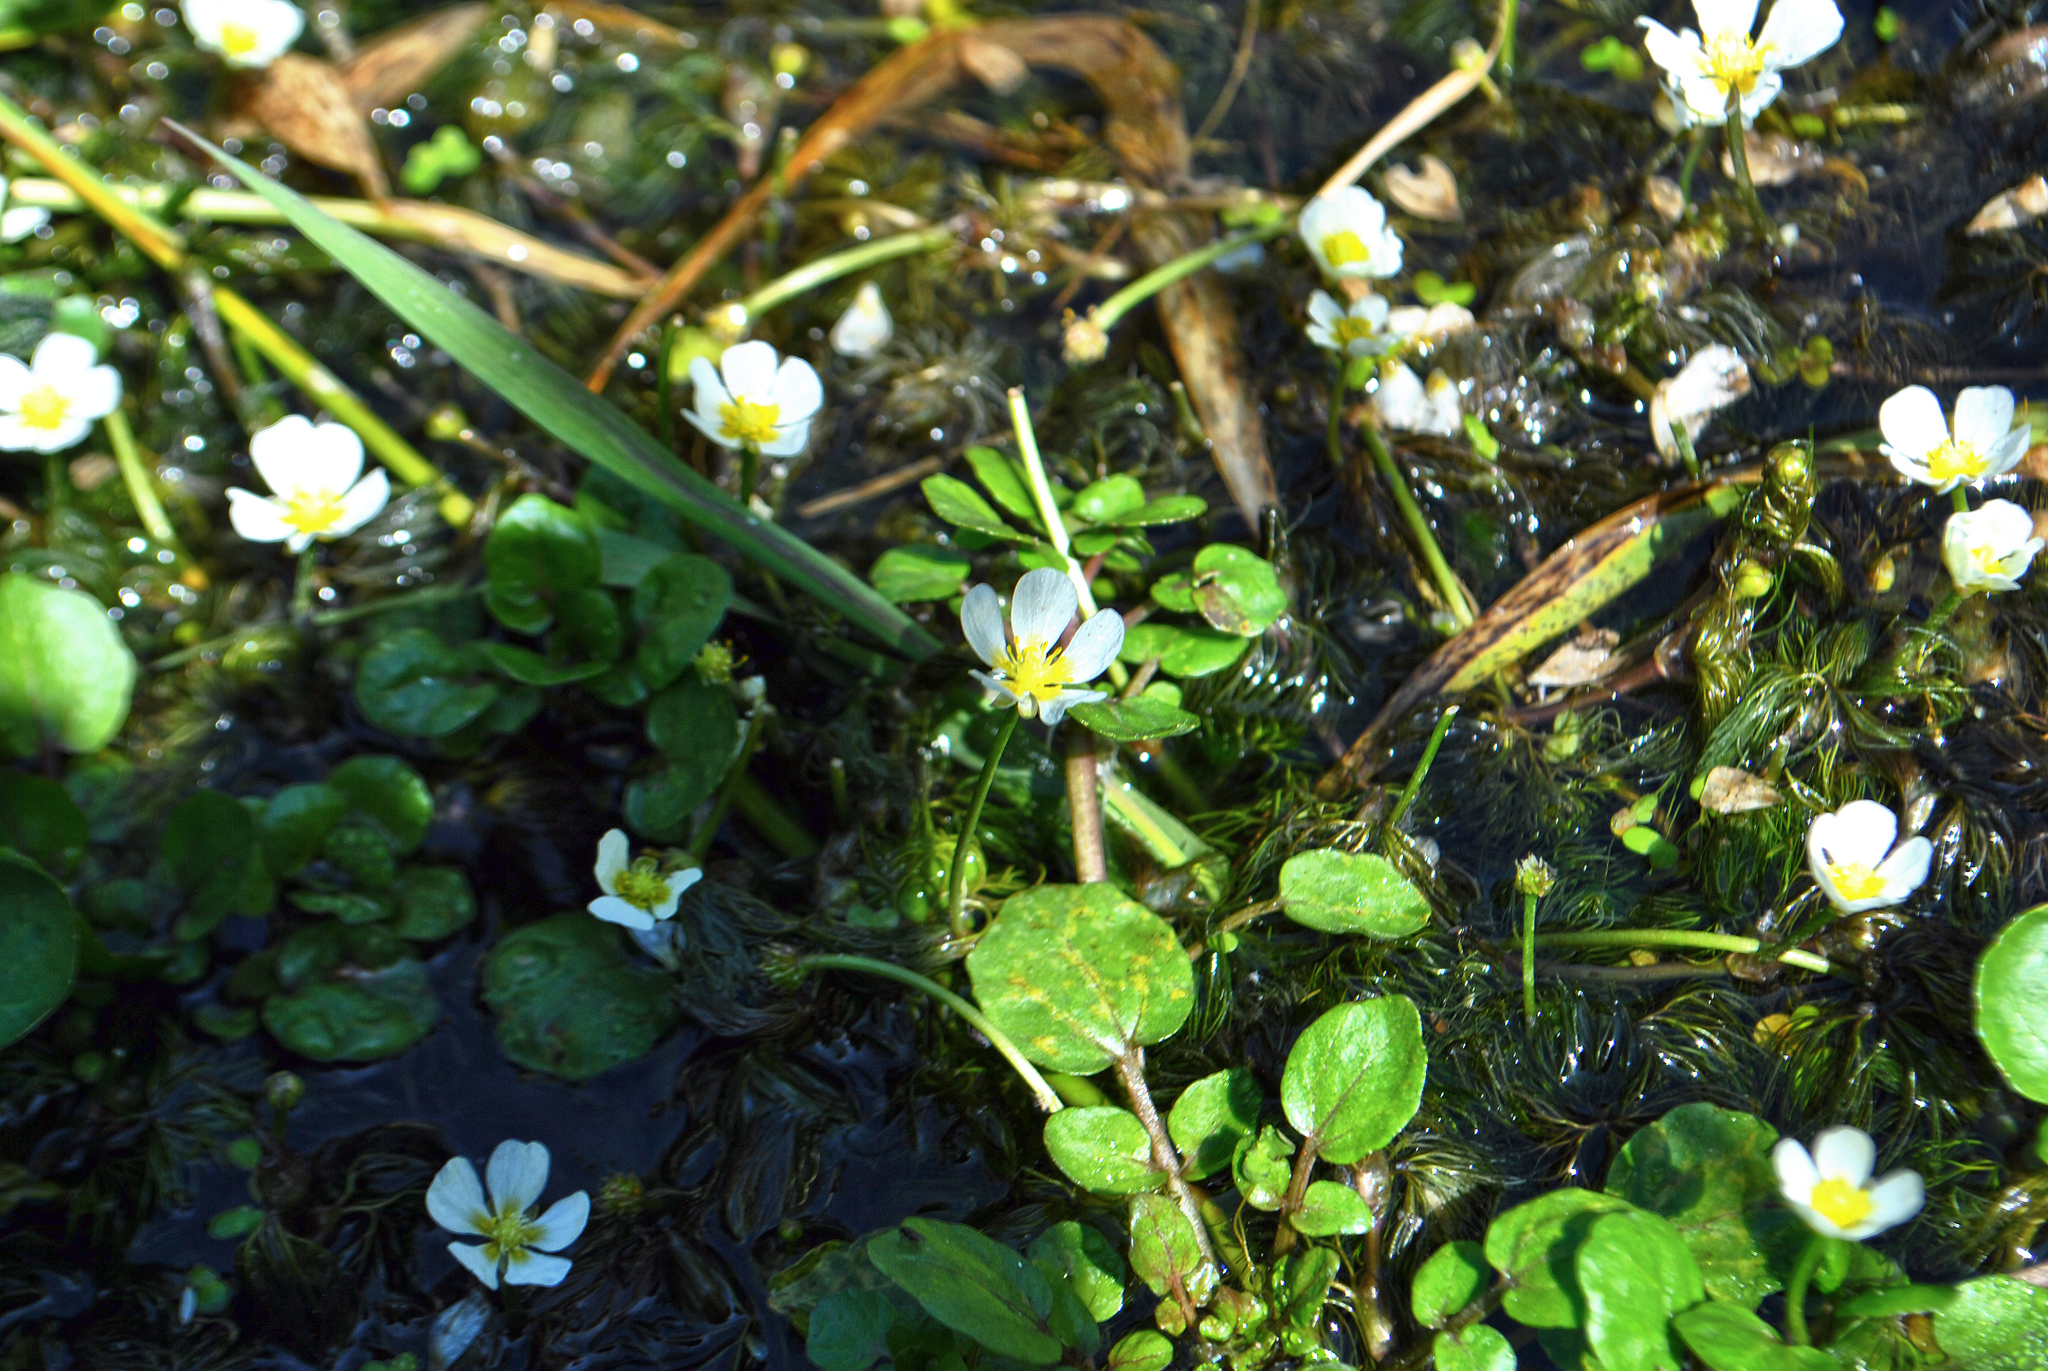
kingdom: Plantae
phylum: Tracheophyta
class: Magnoliopsida
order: Ranunculales
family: Ranunculaceae
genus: Ranunculus
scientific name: Ranunculus aquatilis
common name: Common water-crowfoot
